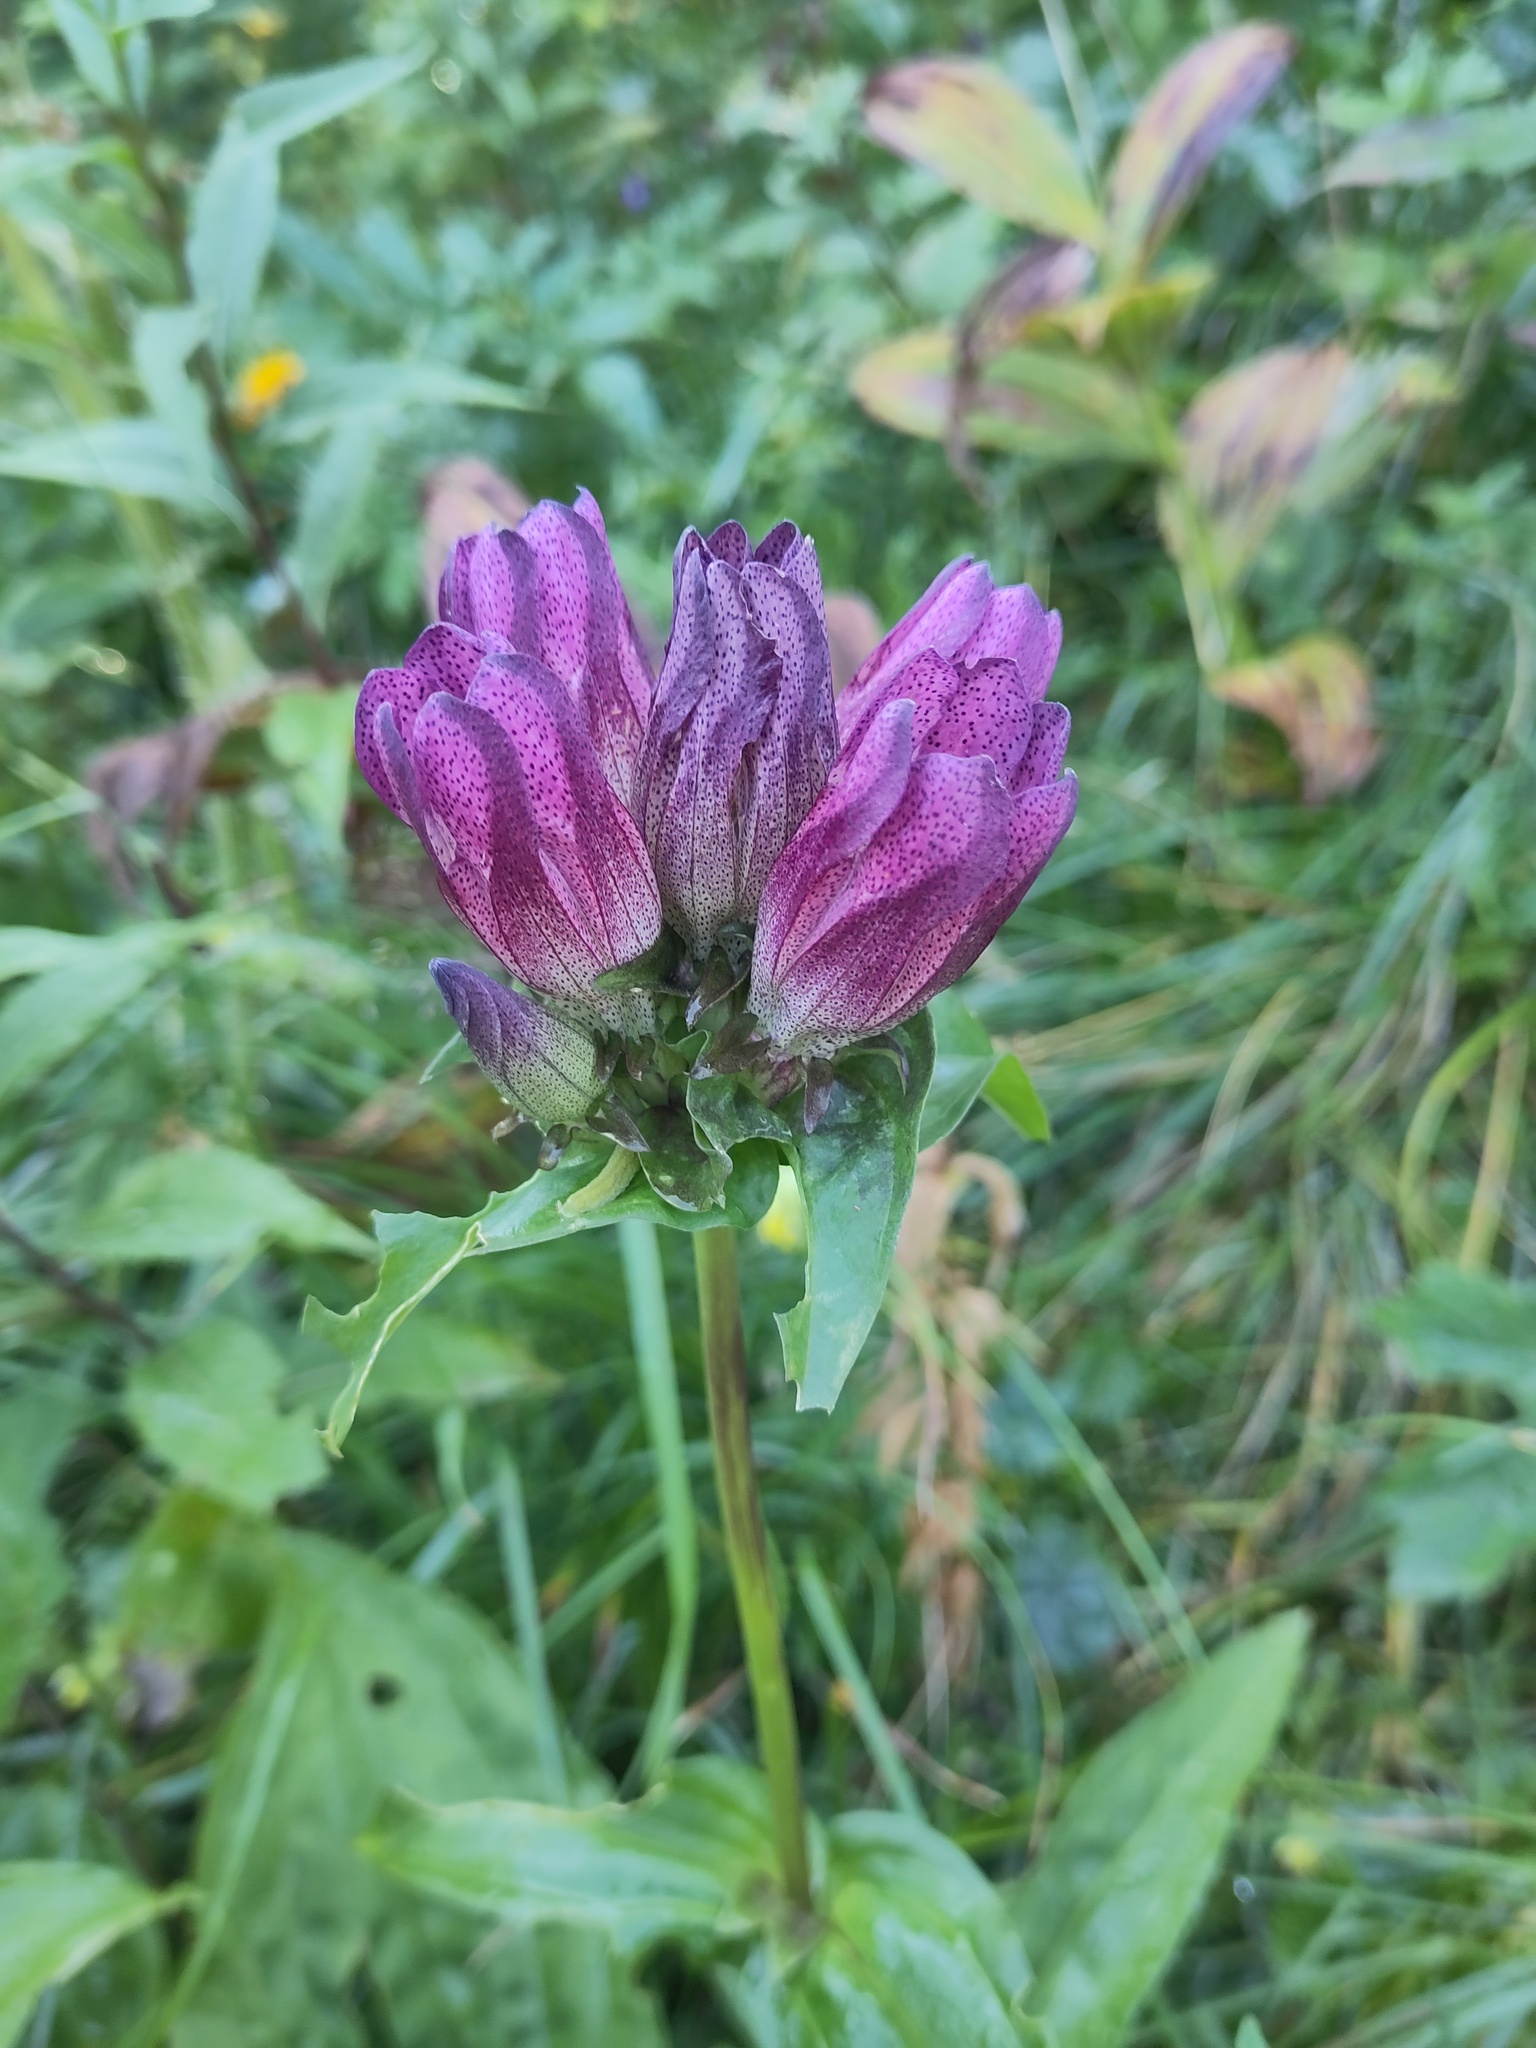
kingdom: Plantae
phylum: Tracheophyta
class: Magnoliopsida
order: Gentianales
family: Gentianaceae
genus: Gentiana
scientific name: Gentiana pannonica
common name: Hungarian gentian
